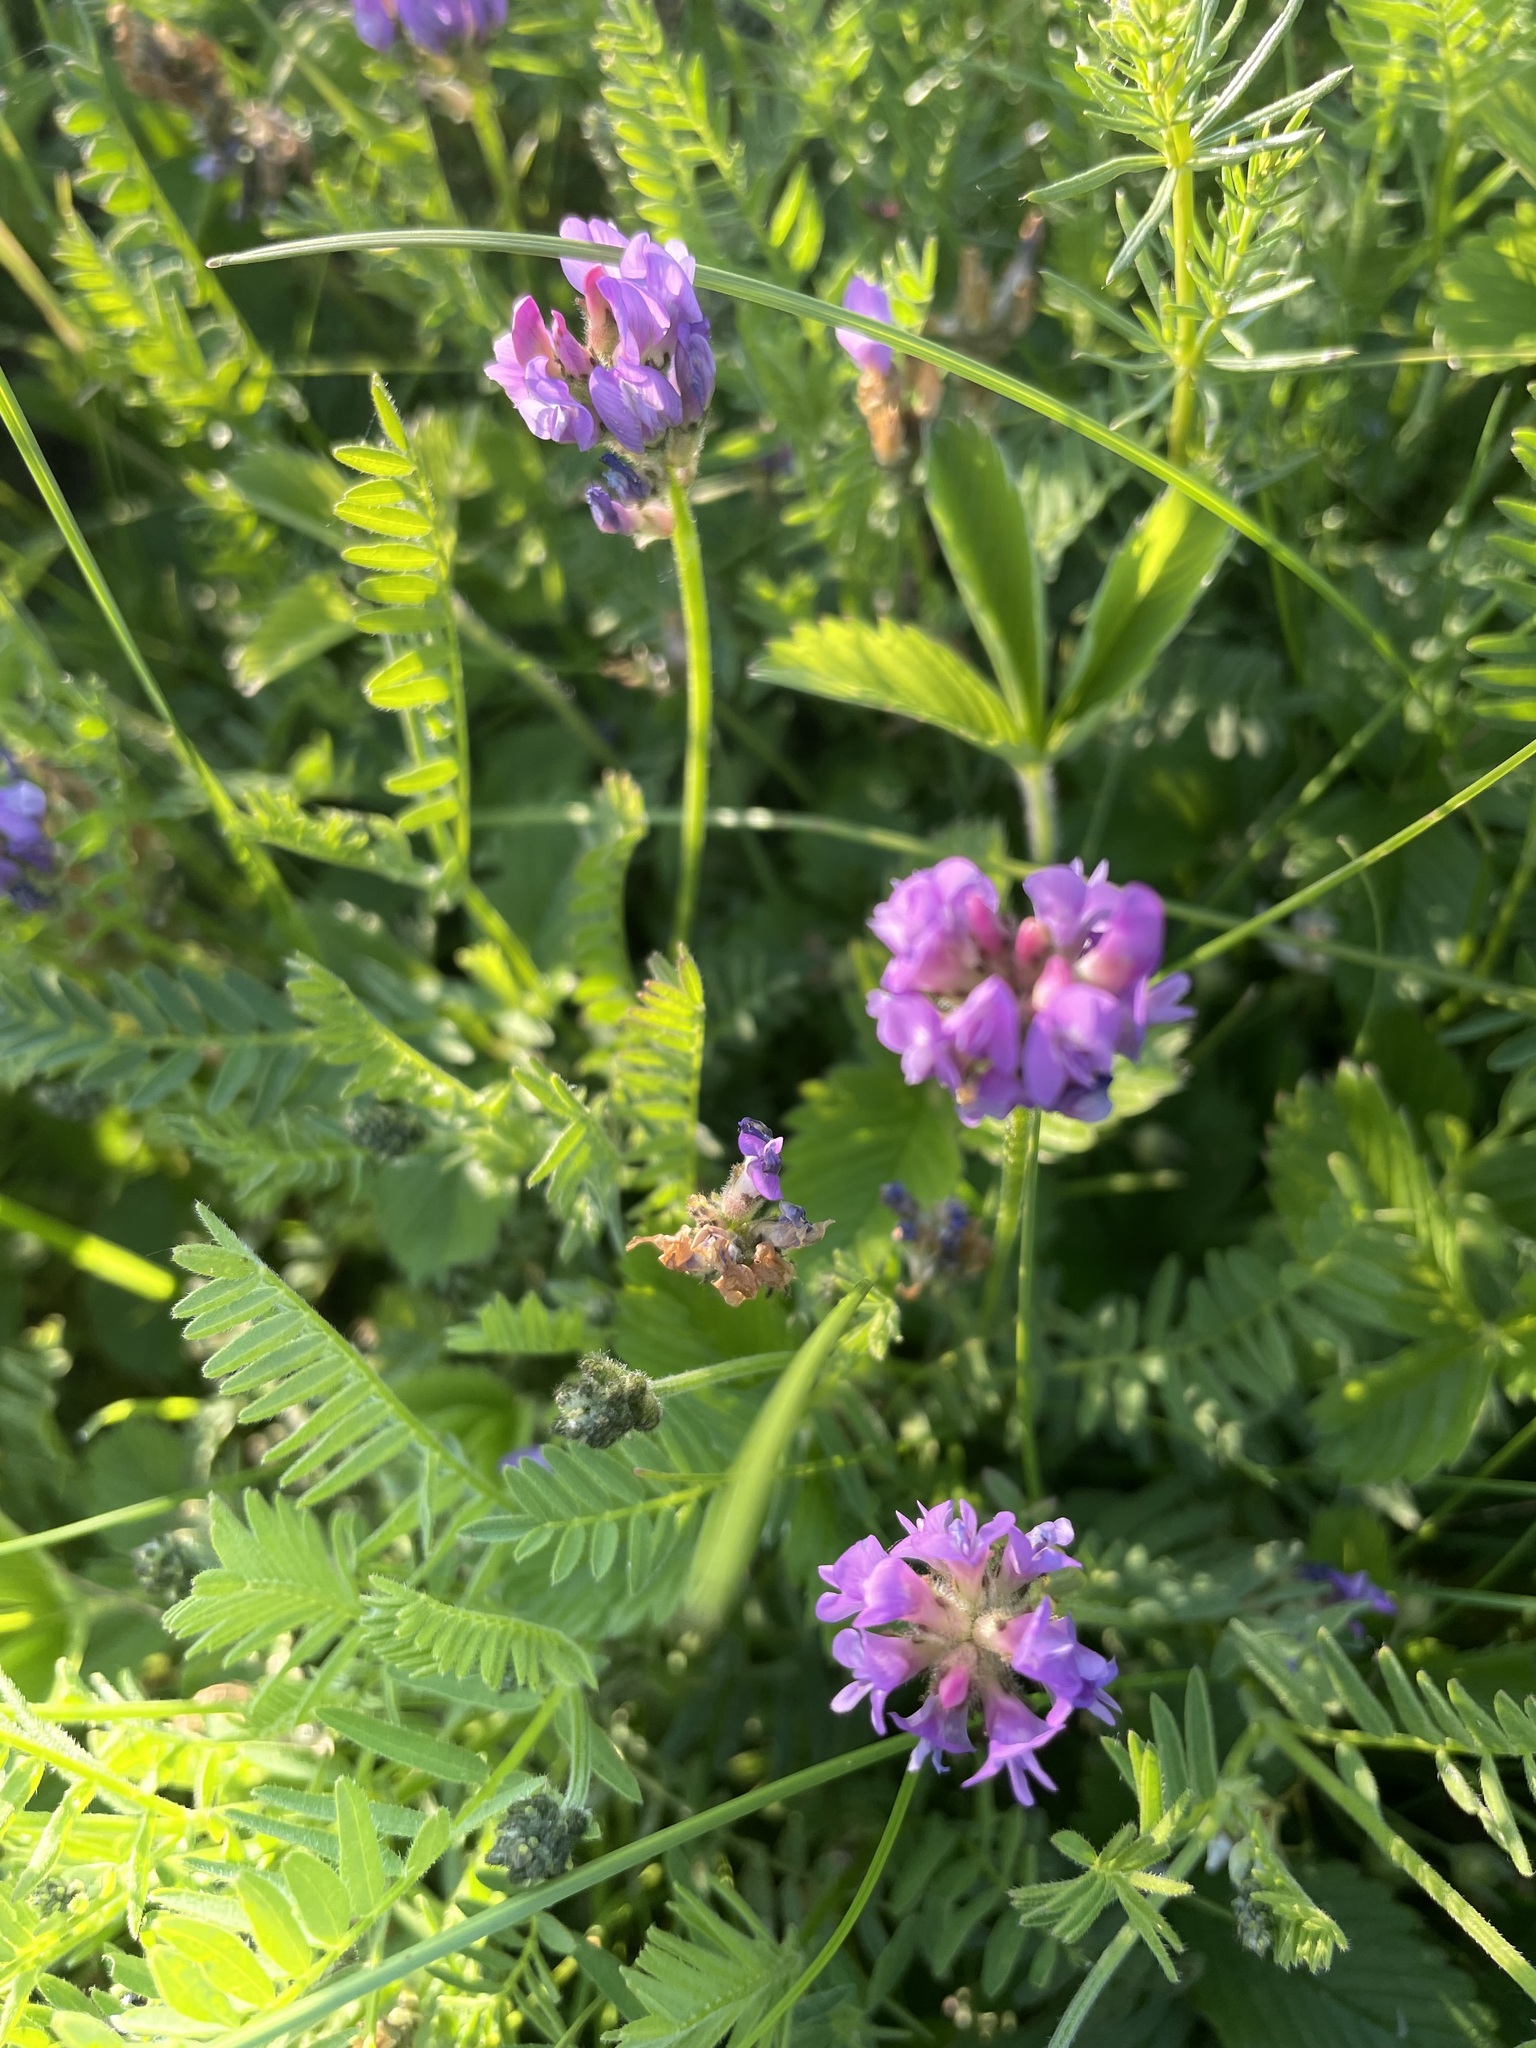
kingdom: Plantae
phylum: Tracheophyta
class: Magnoliopsida
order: Fabales
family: Fabaceae
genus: Astragalus
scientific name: Astragalus danicus
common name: Purple milk-vetch
